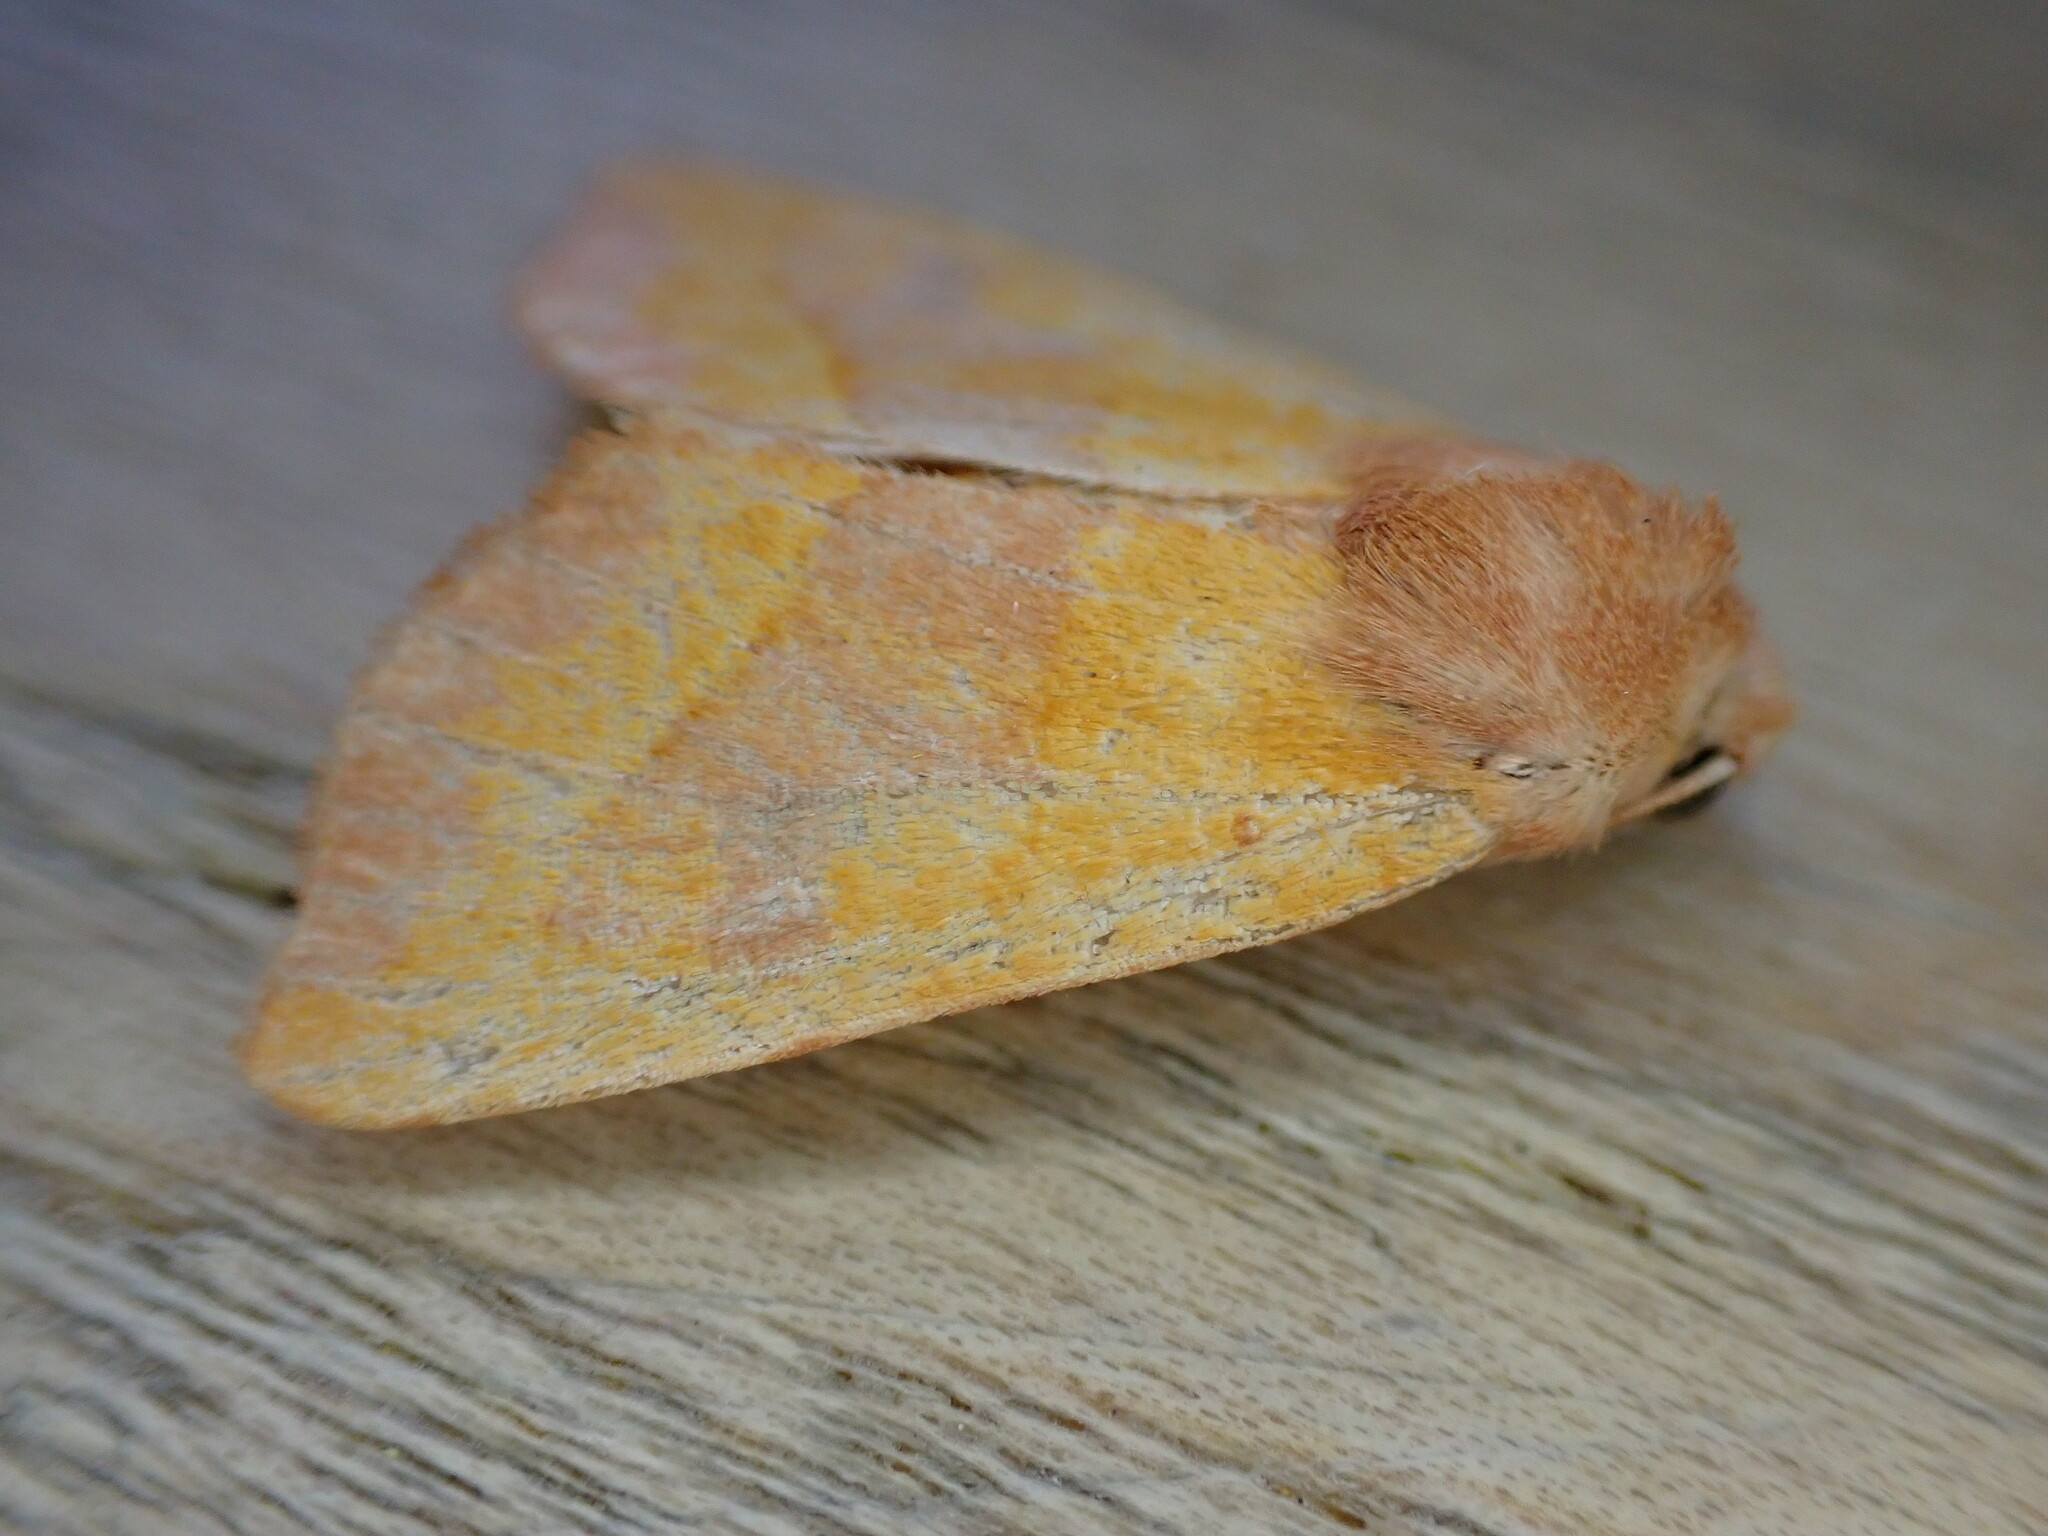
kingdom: Animalia
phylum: Arthropoda
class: Insecta
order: Lepidoptera
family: Noctuidae
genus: Atethmia
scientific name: Atethmia centrago
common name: Centre-barred sallow
